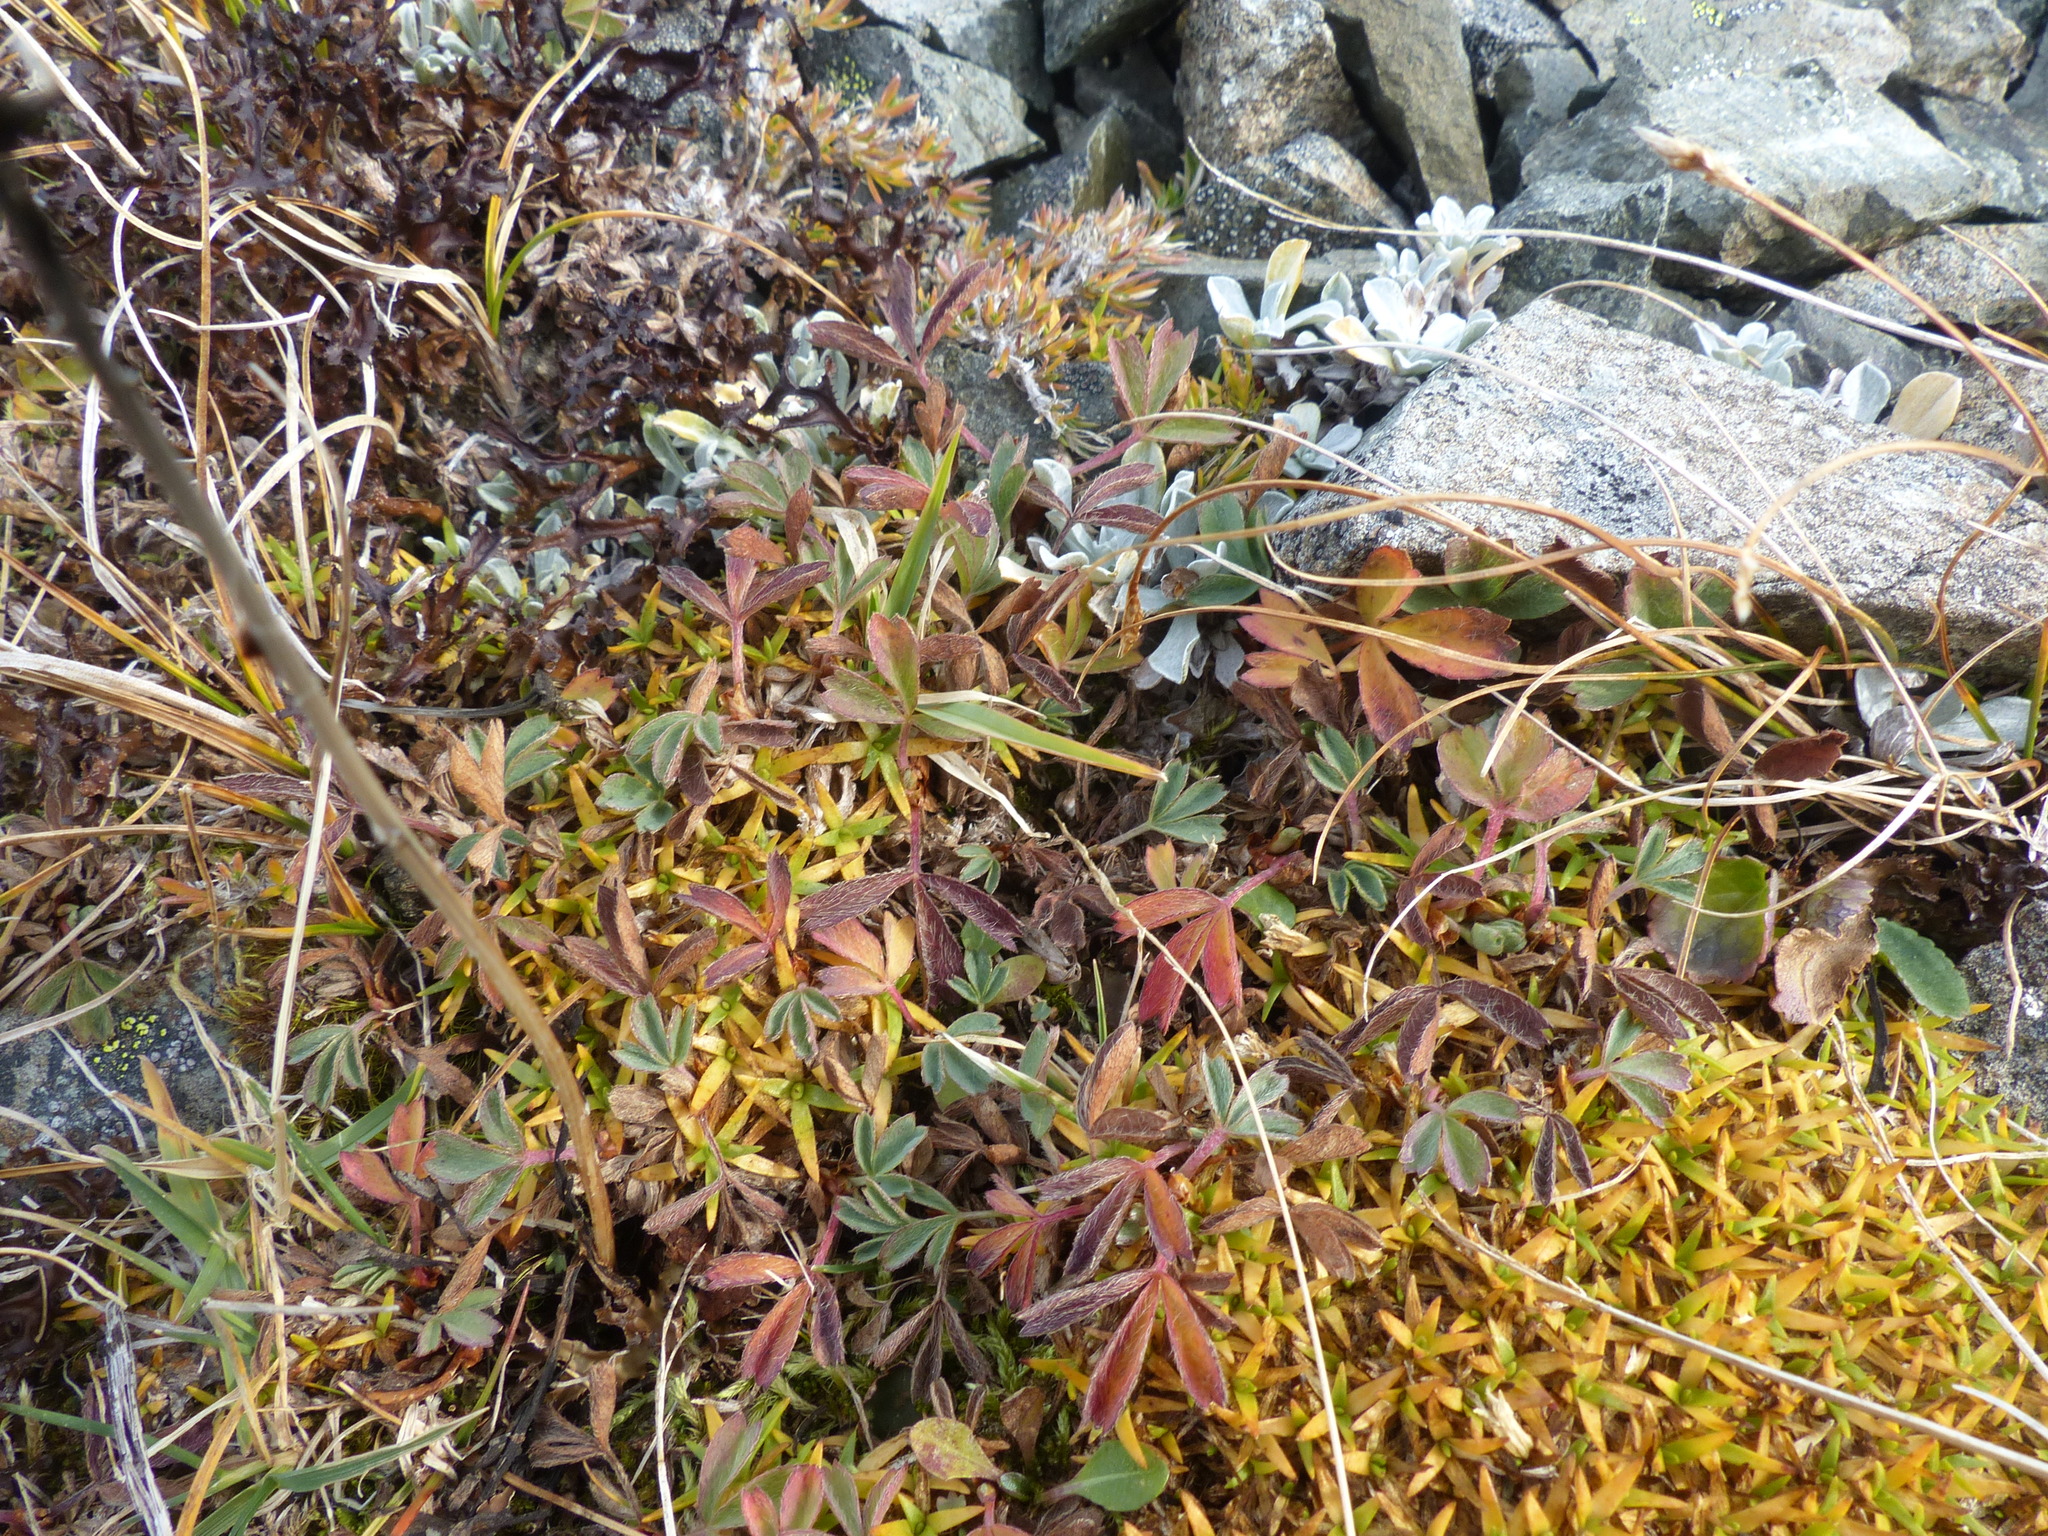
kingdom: Plantae
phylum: Tracheophyta
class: Magnoliopsida
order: Rosales
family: Rosaceae
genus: Sibbaldia
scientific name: Sibbaldia procumbens
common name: Creeping sibbaldia
